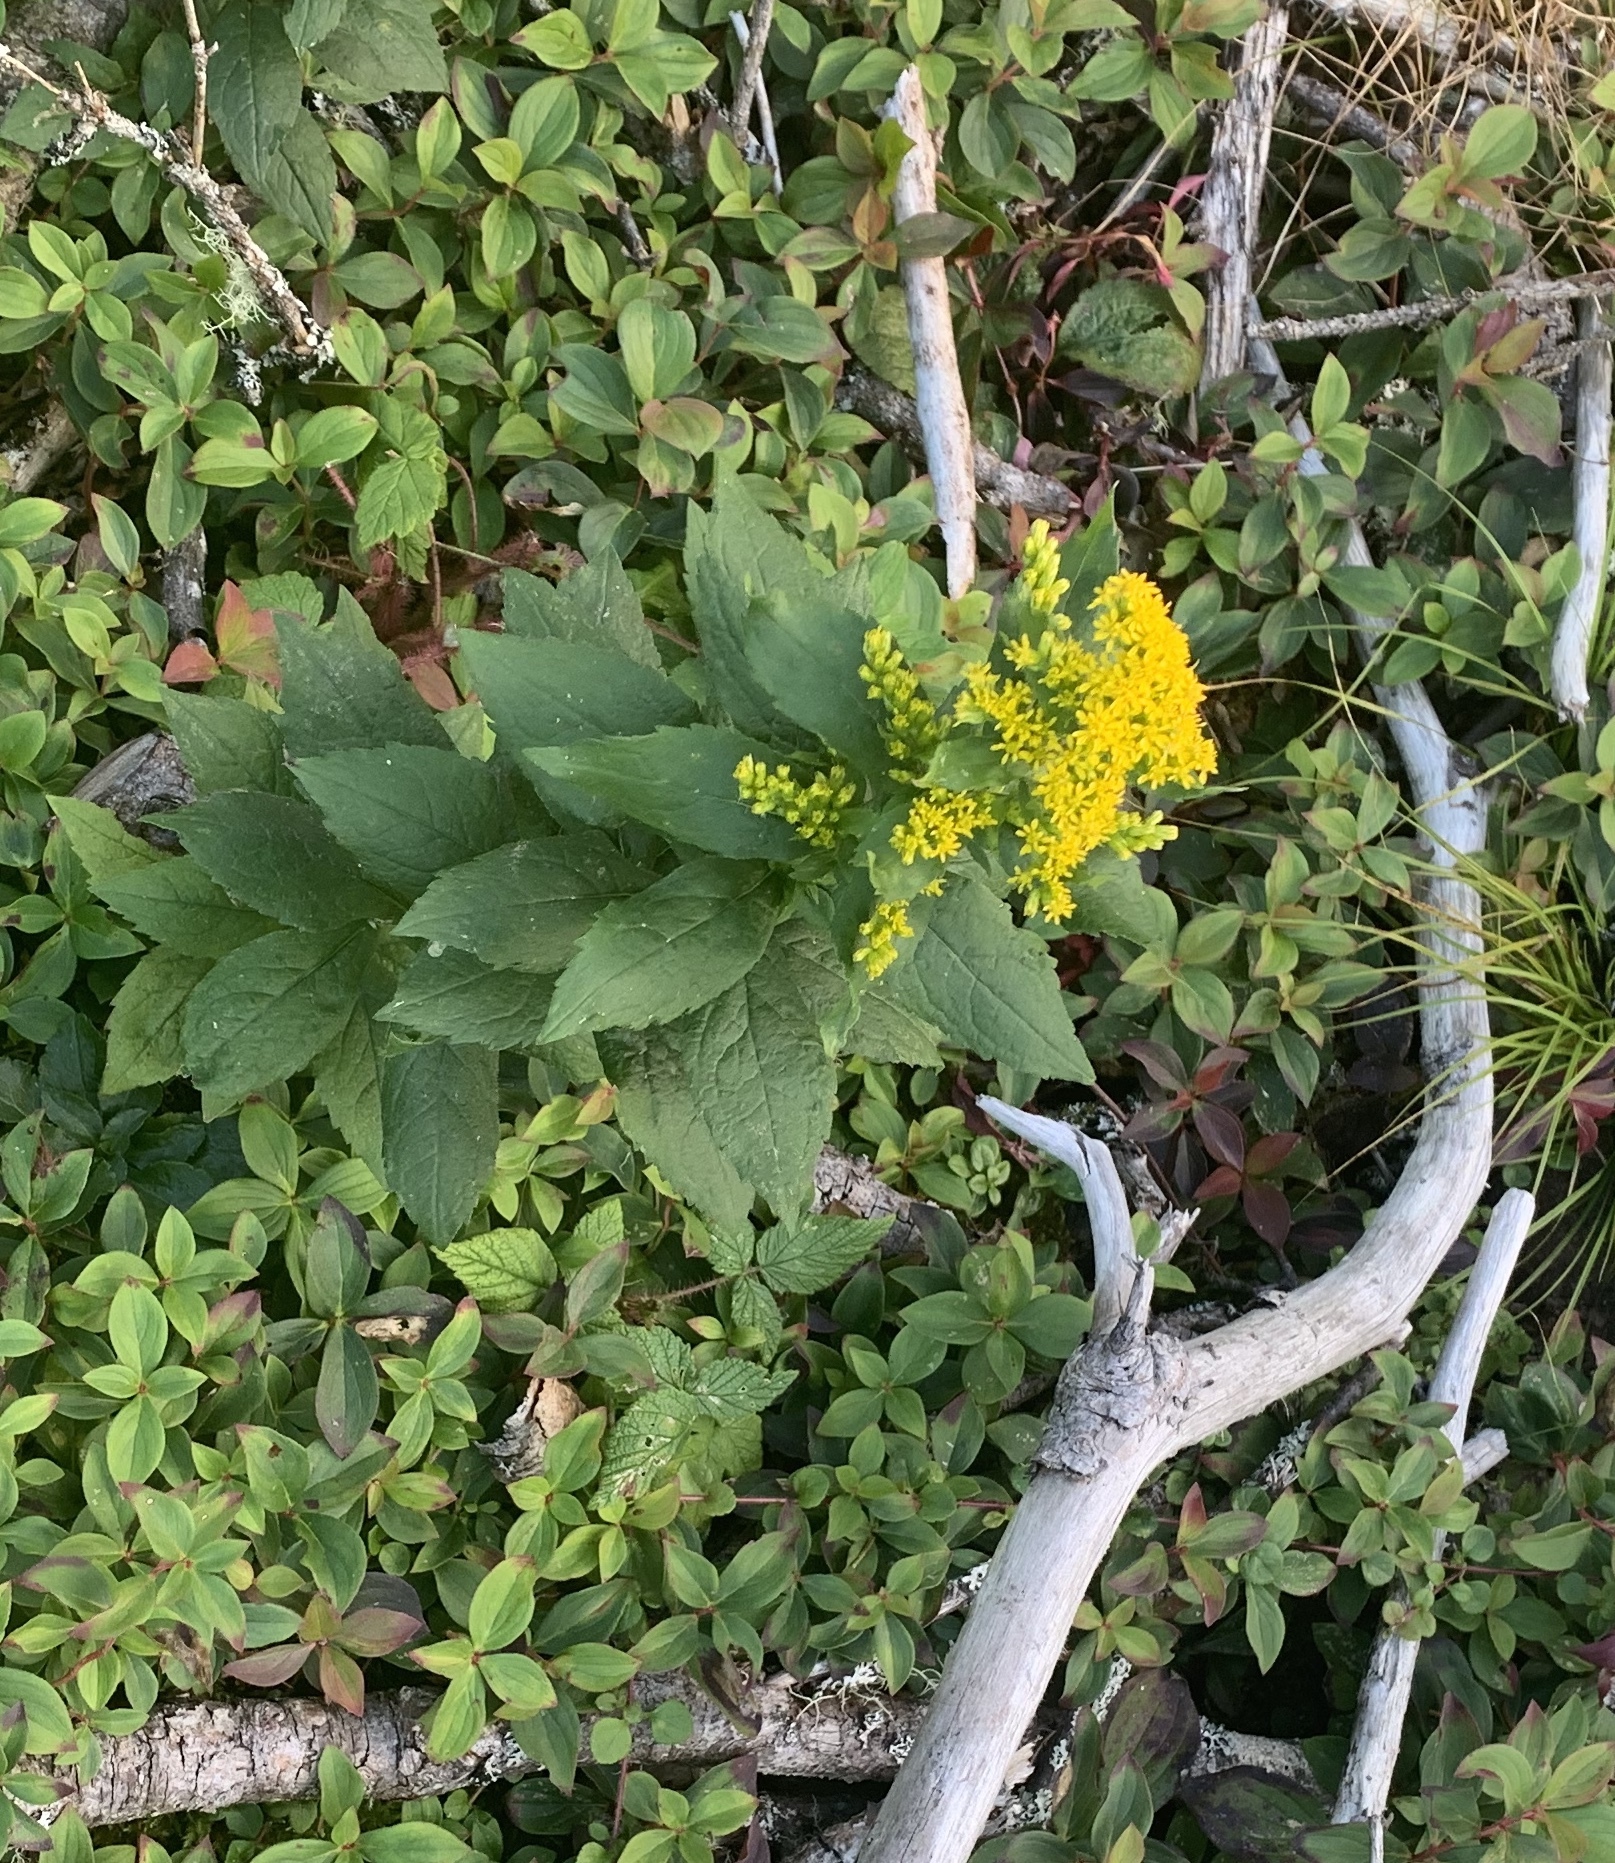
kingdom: Plantae
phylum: Tracheophyta
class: Magnoliopsida
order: Asterales
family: Asteraceae
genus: Solidago
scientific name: Solidago rugosa
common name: Rough-stemmed goldenrod
